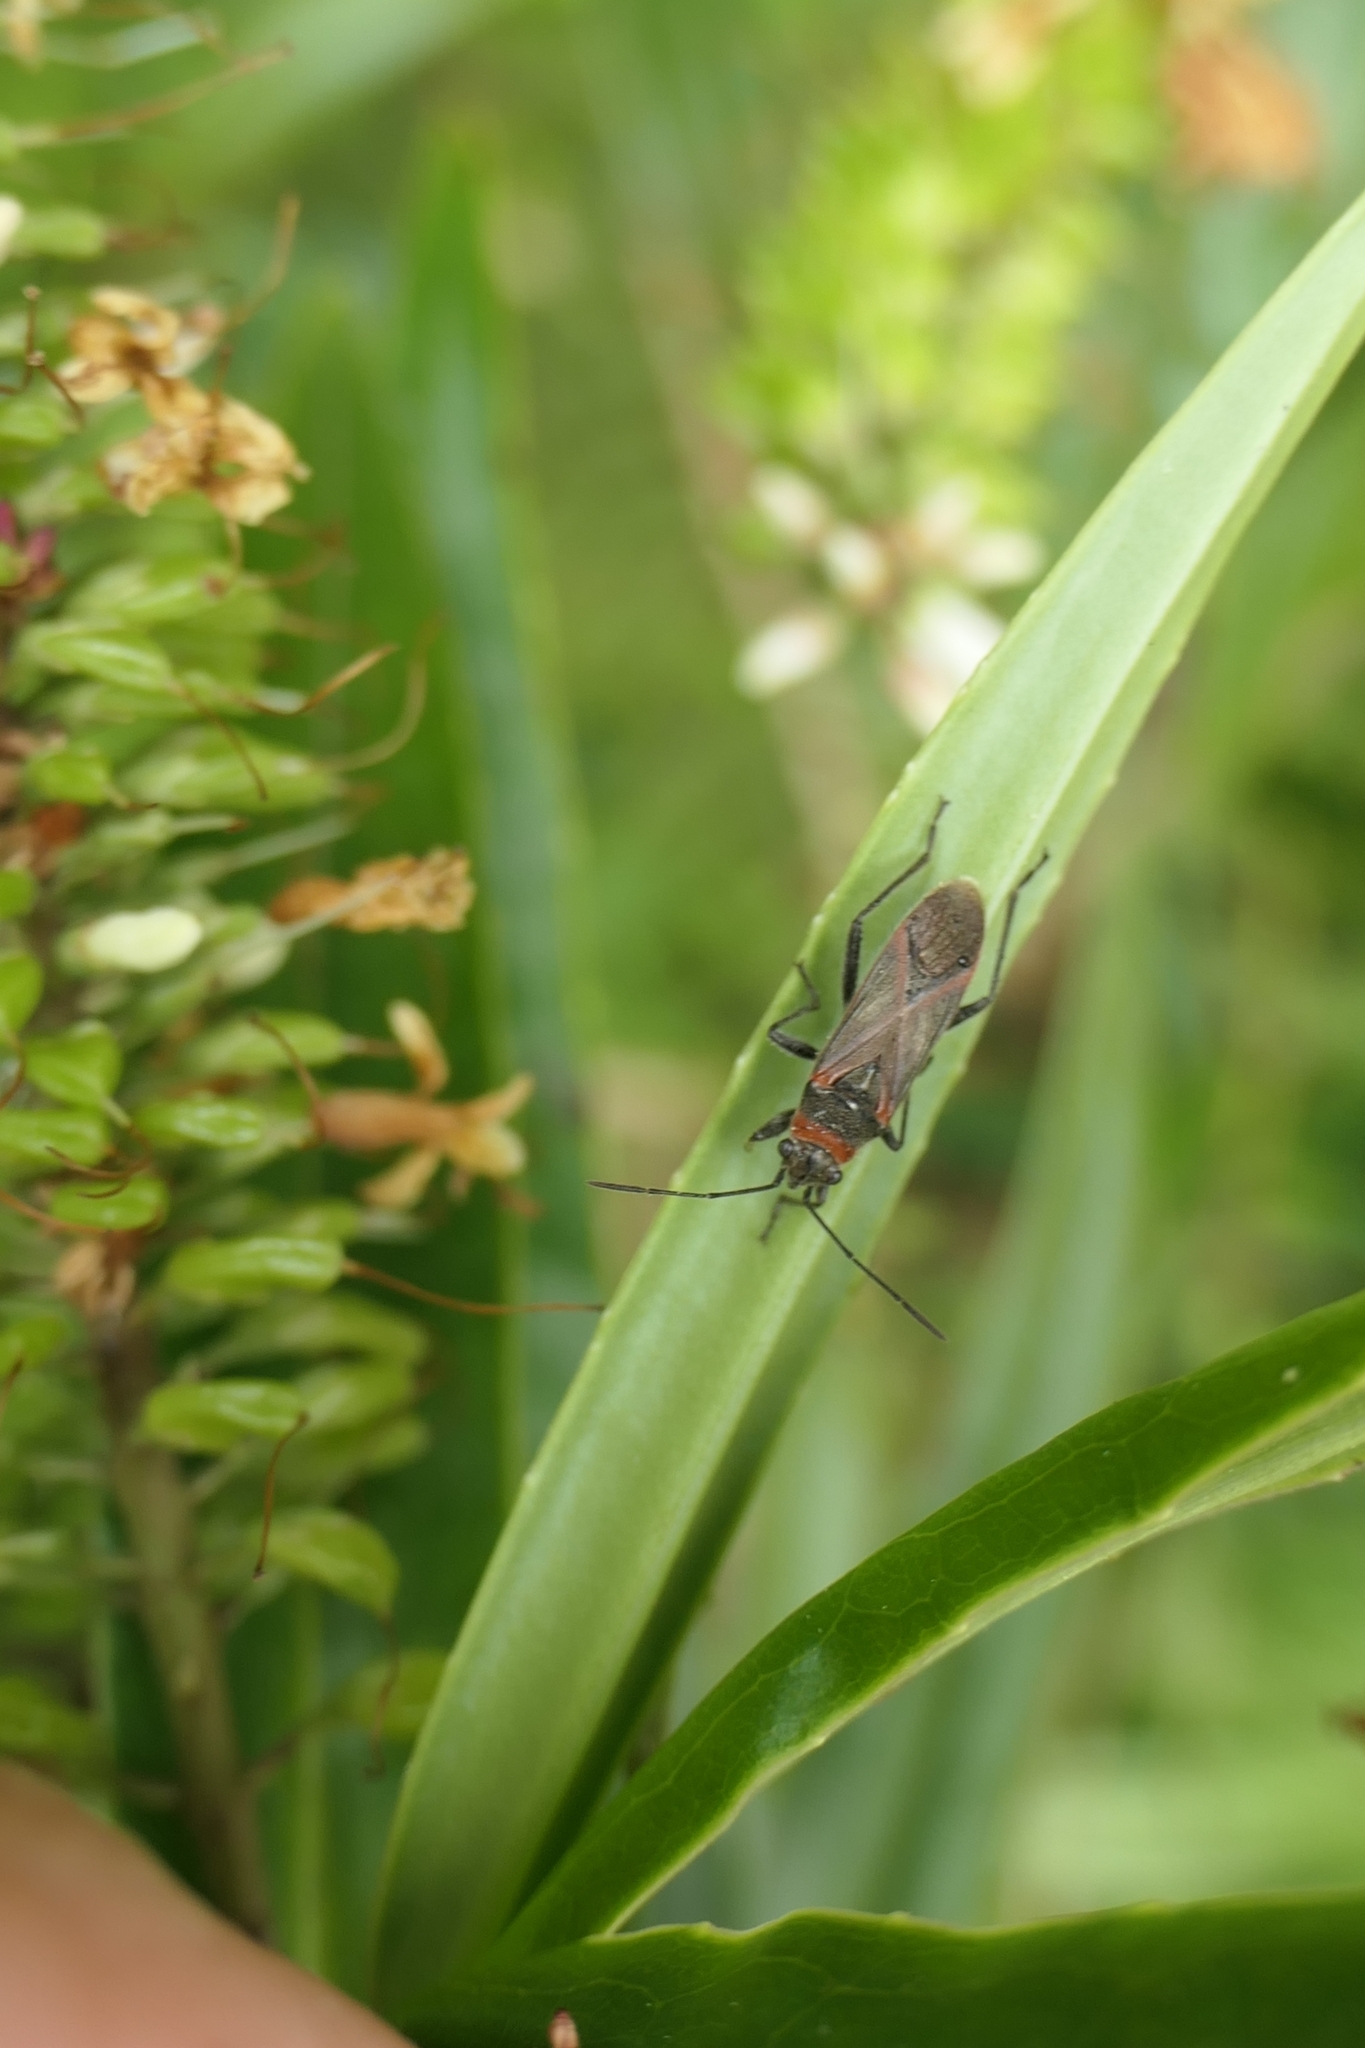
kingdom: Animalia
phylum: Arthropoda
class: Insecta
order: Hemiptera
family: Lygaeidae
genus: Arocatus
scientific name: Arocatus rusticus
